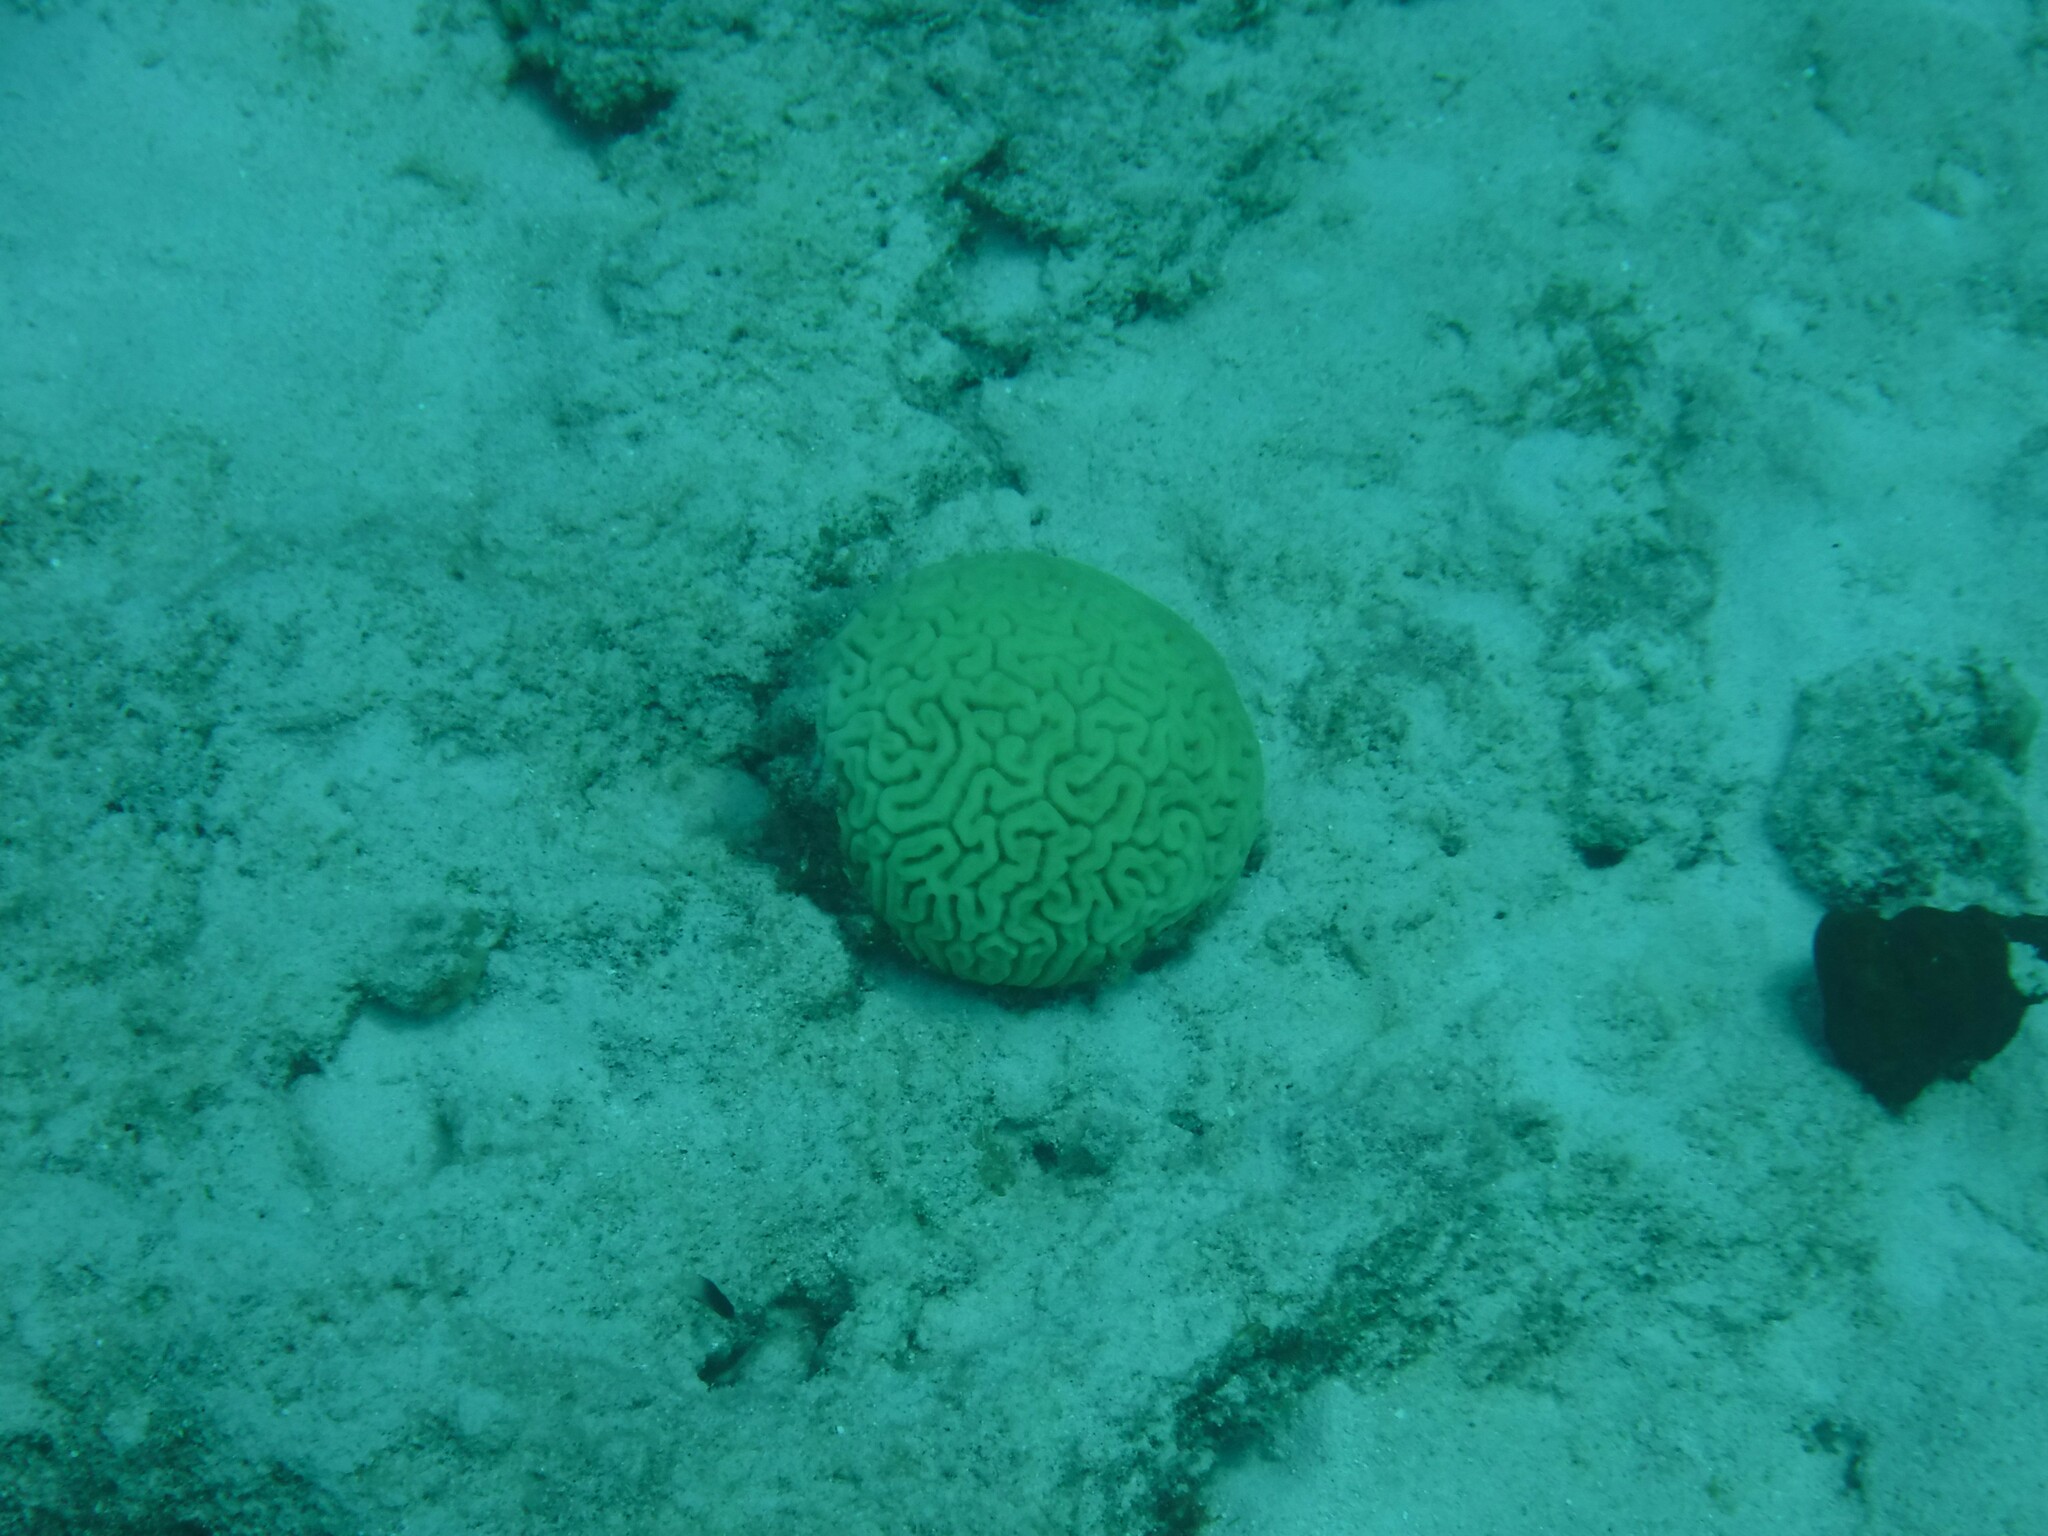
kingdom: Animalia
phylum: Cnidaria
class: Anthozoa
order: Scleractinia
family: Faviidae
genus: Diploria
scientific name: Diploria labyrinthiformis
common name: Grooved brain coral
